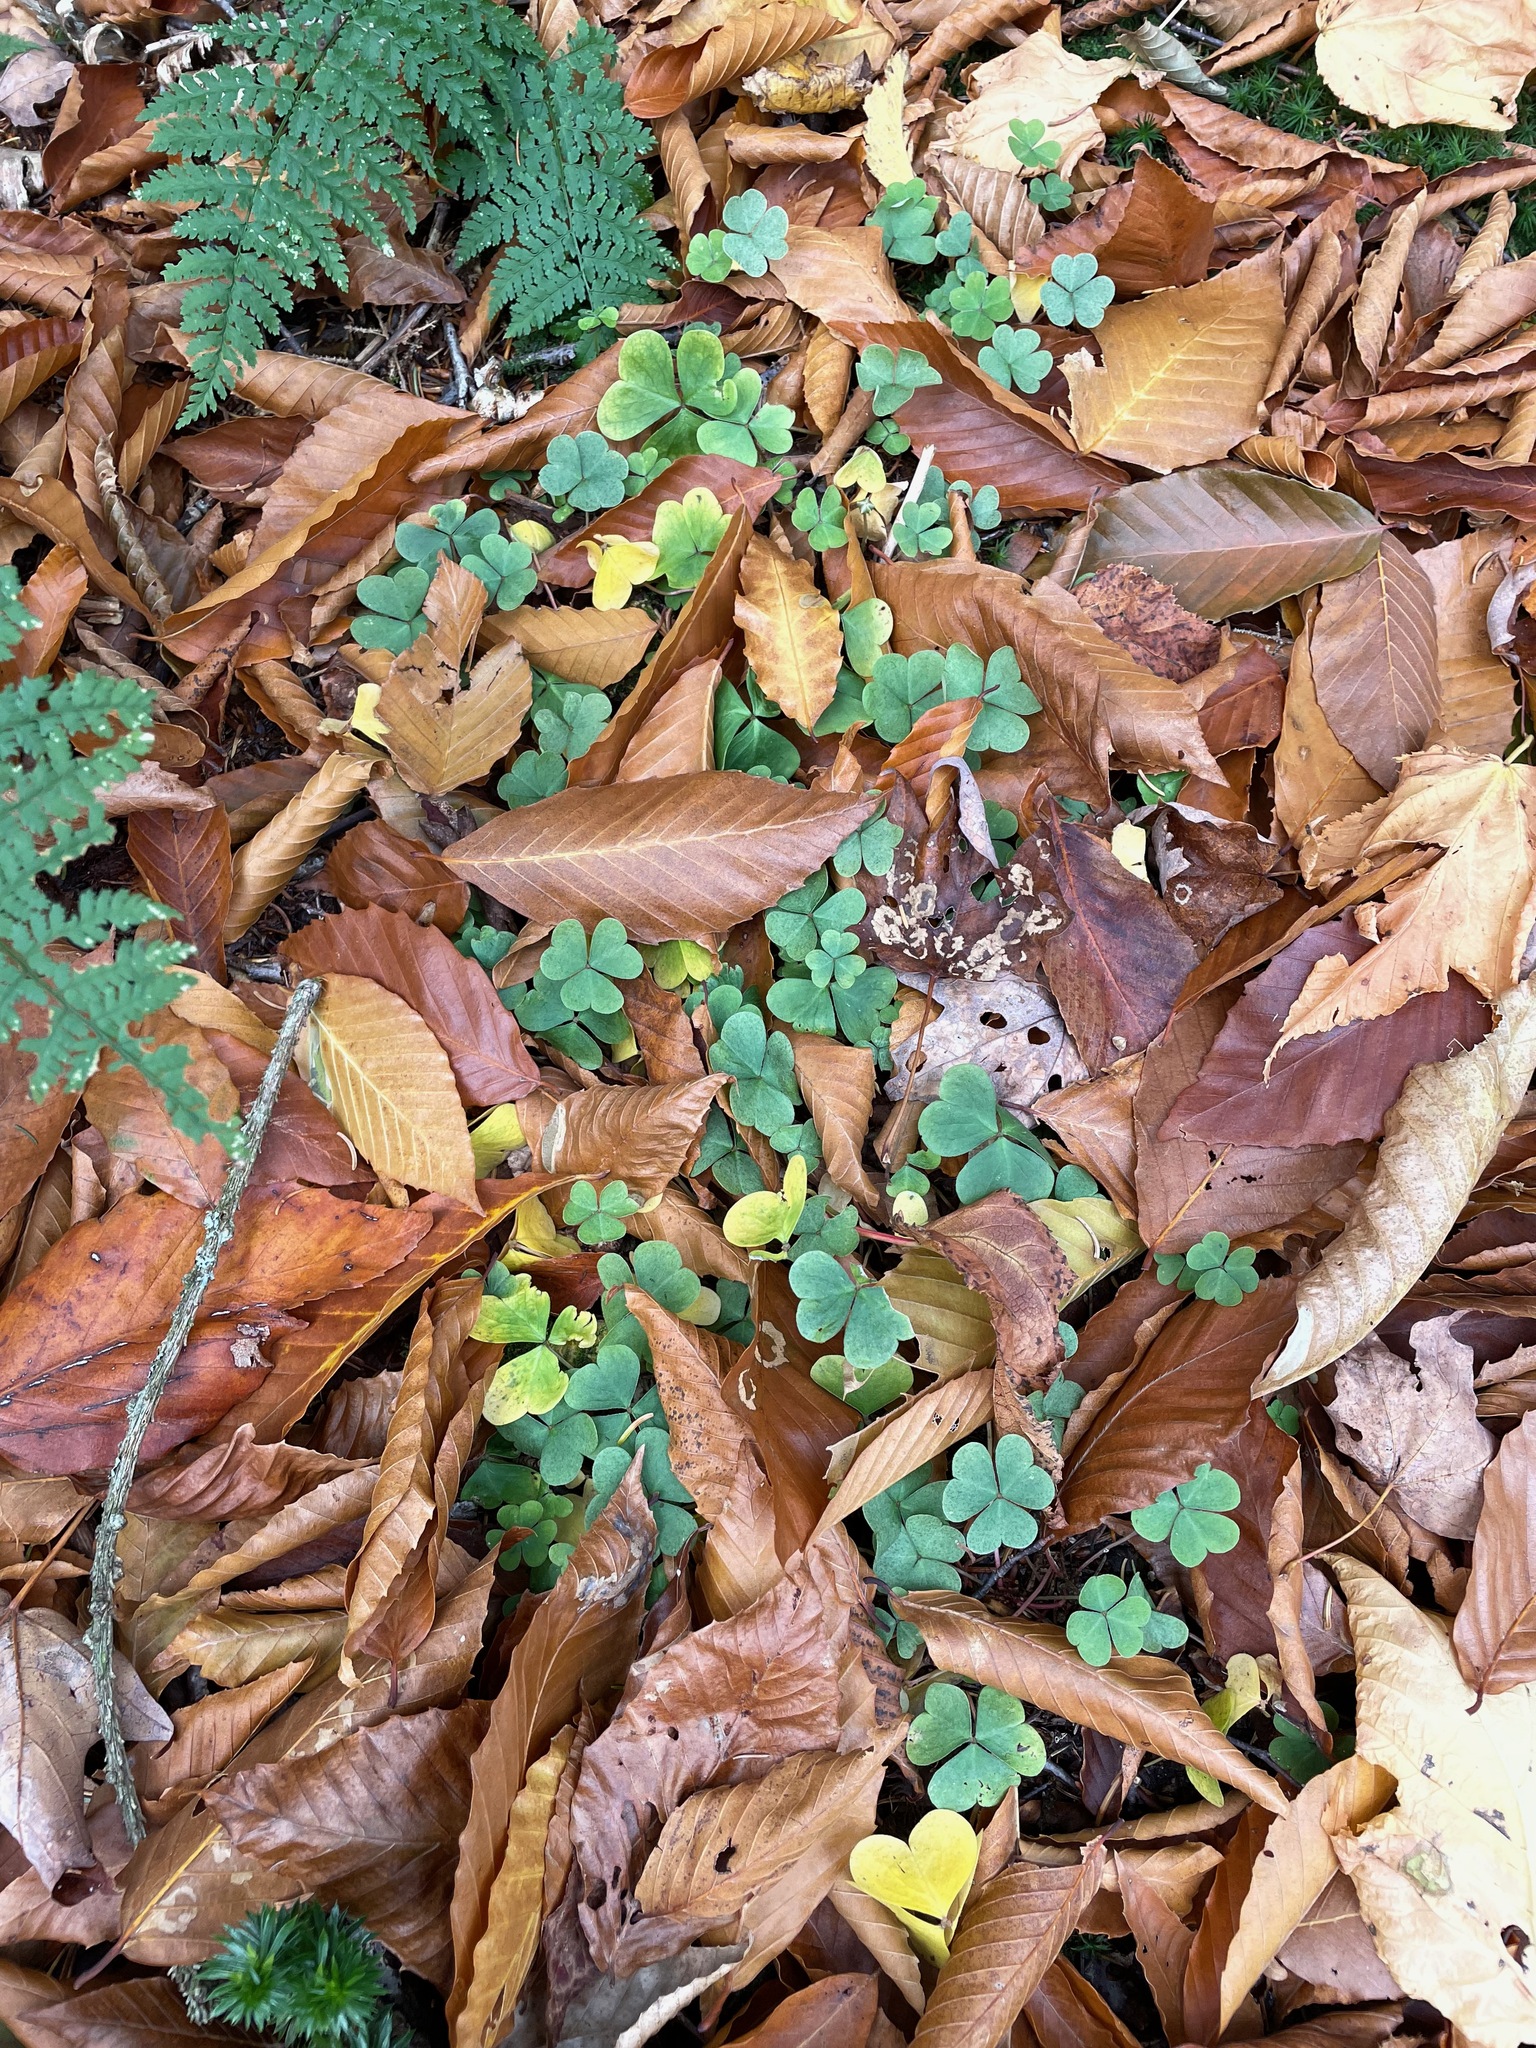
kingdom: Plantae
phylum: Tracheophyta
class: Magnoliopsida
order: Oxalidales
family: Oxalidaceae
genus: Oxalis
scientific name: Oxalis montana
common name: American wood-sorrel
